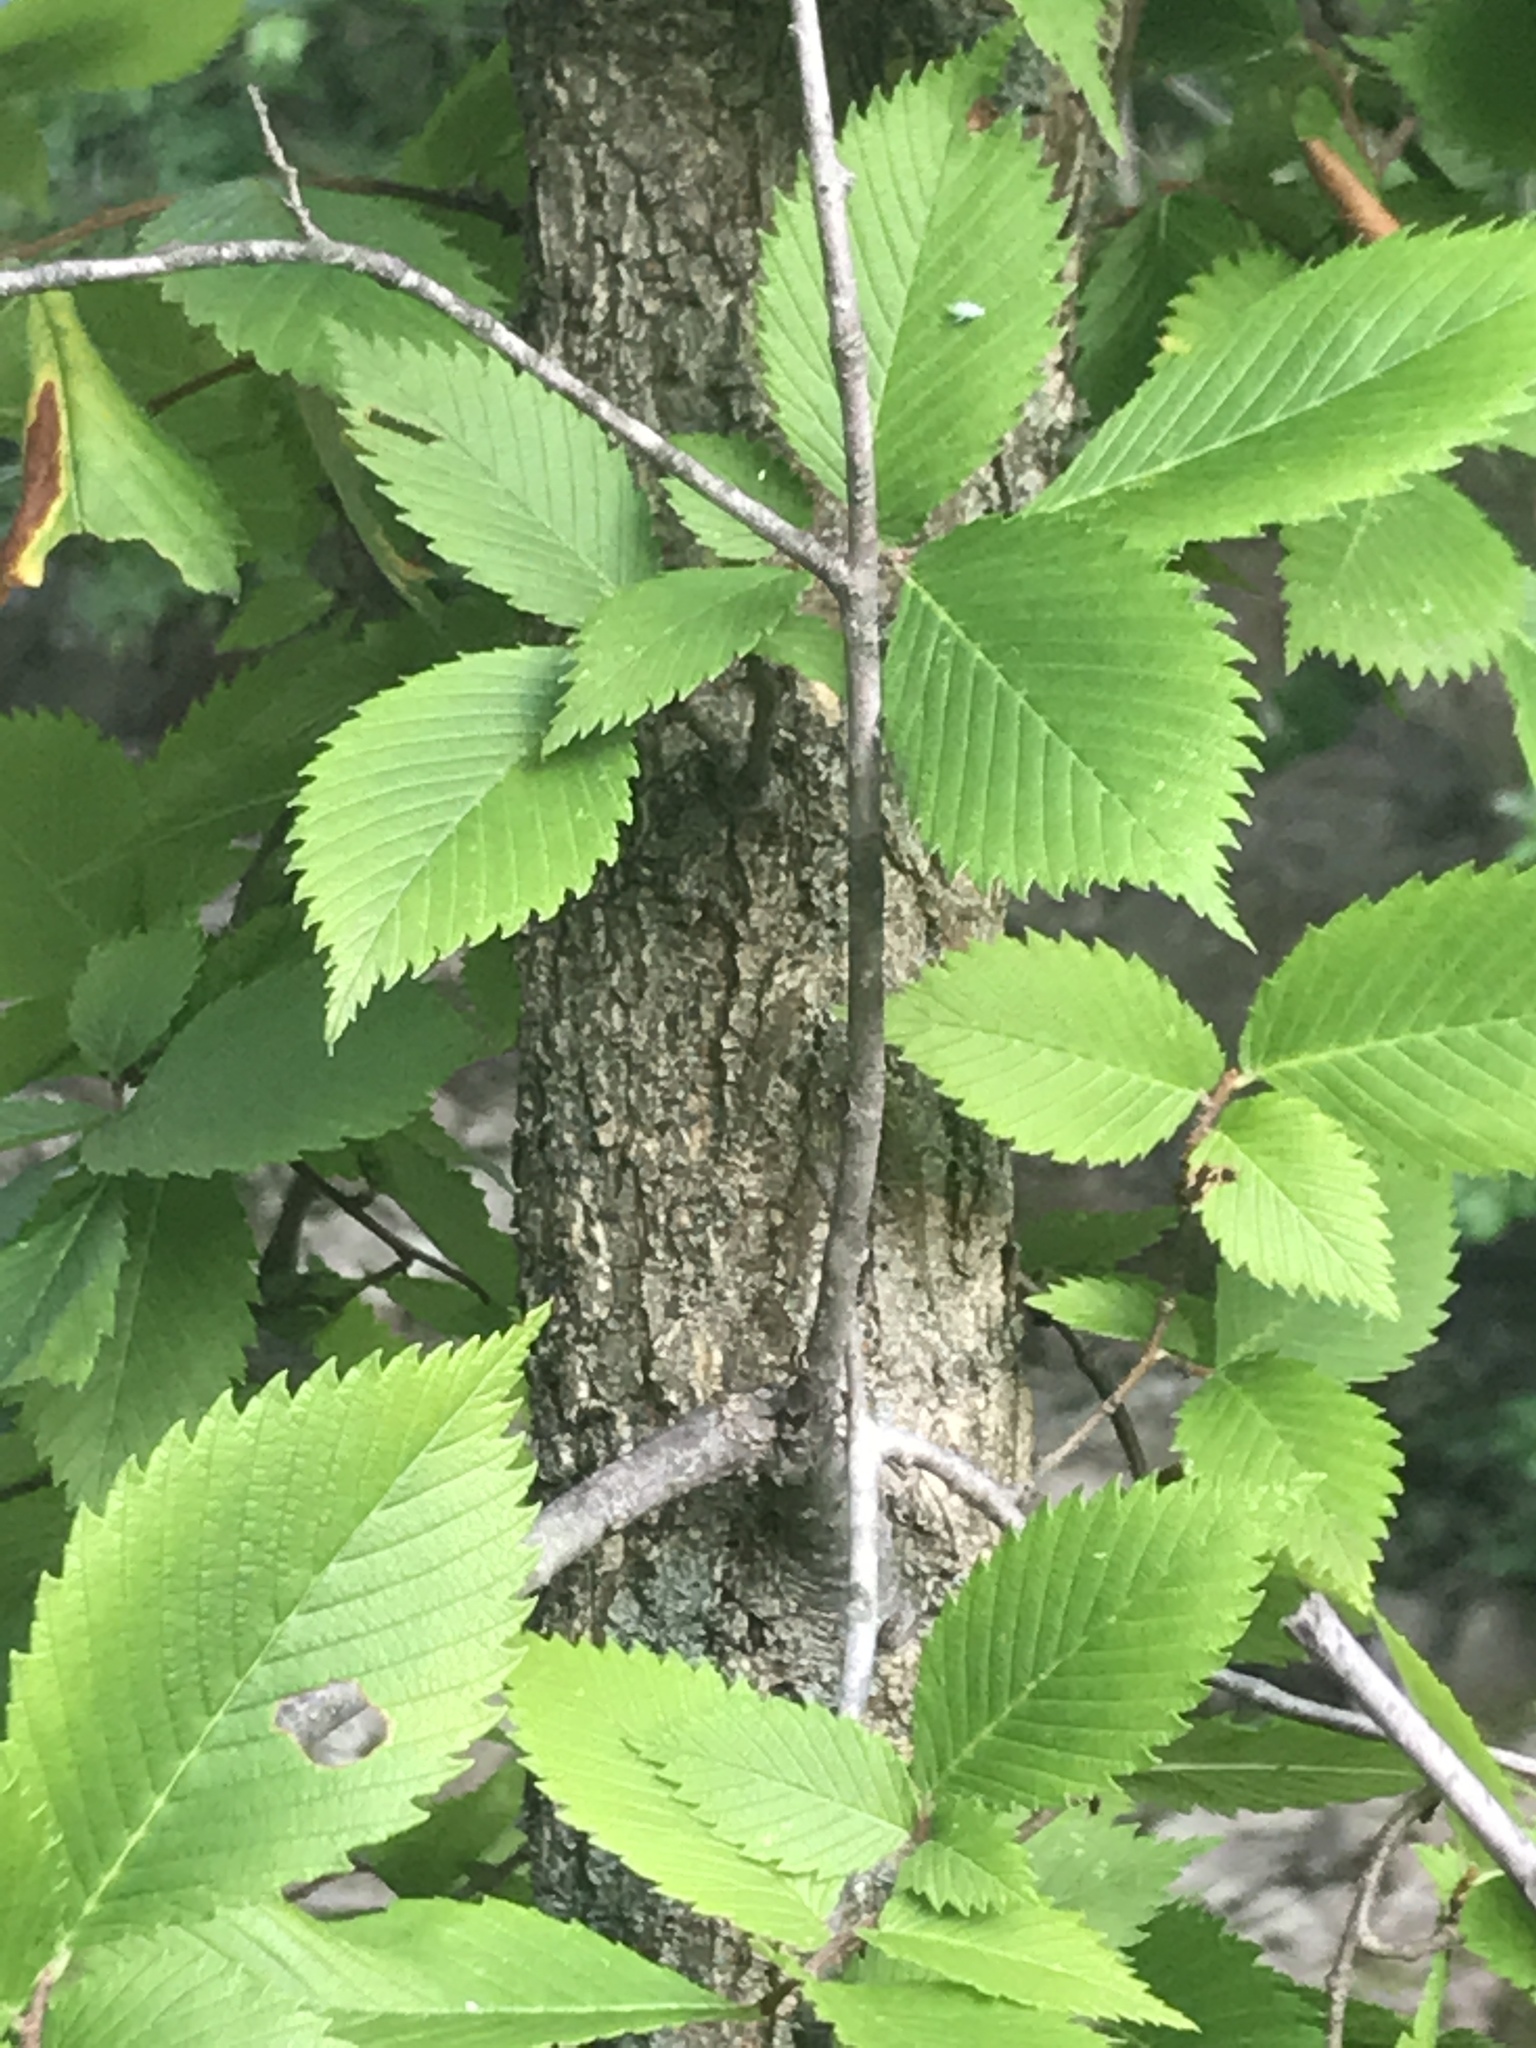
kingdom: Plantae
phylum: Tracheophyta
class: Magnoliopsida
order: Rosales
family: Ulmaceae
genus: Ulmus
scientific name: Ulmus americana
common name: American elm
